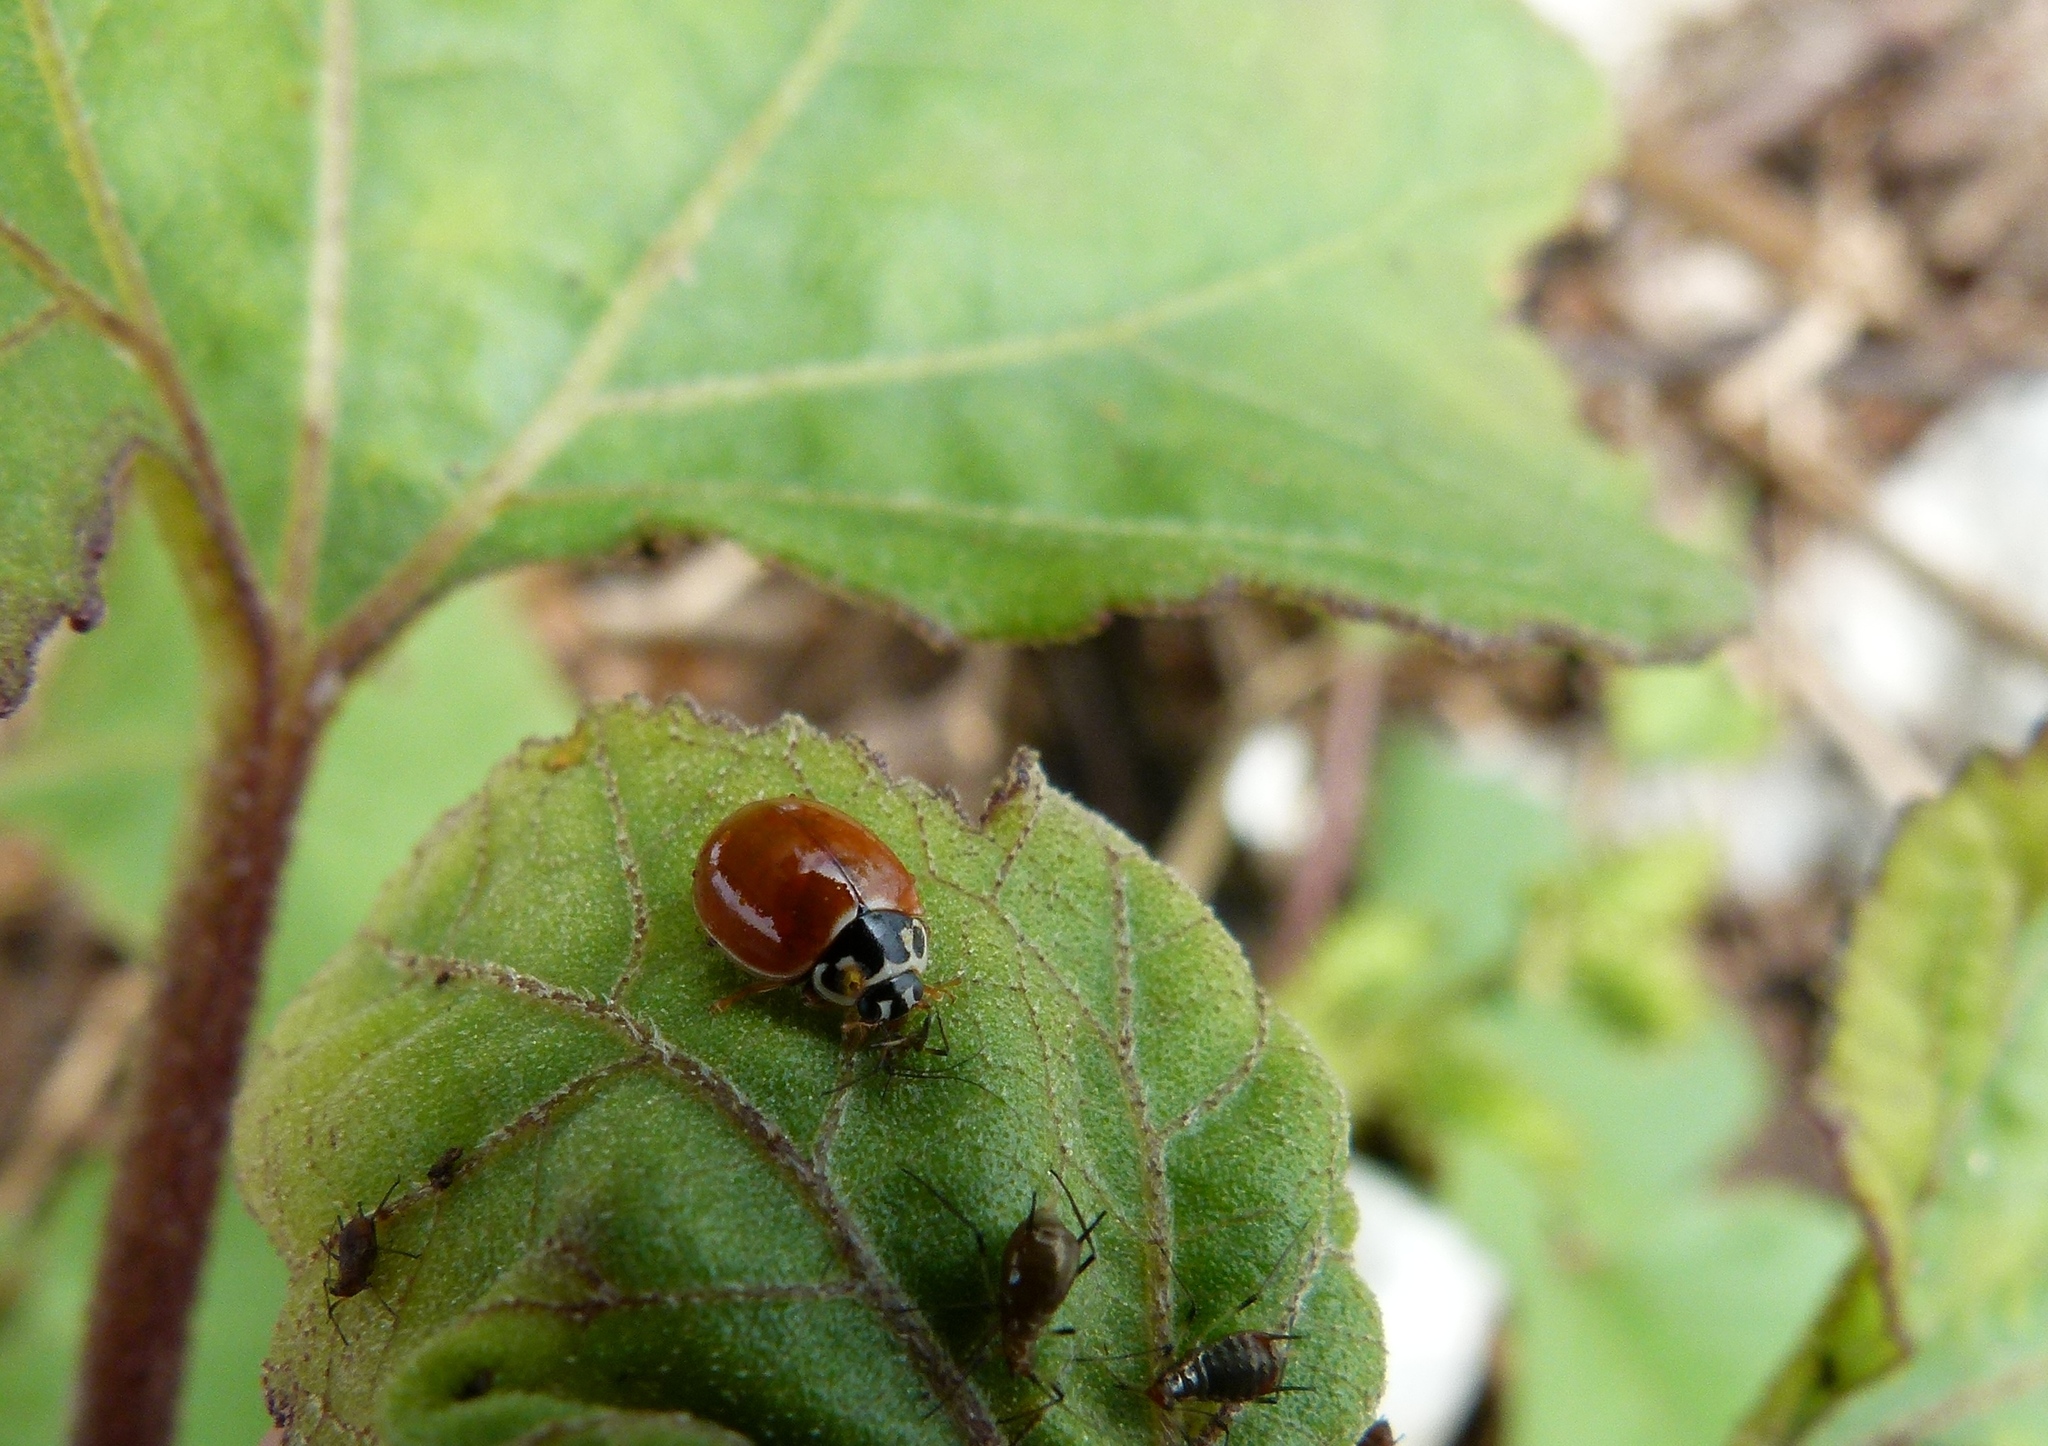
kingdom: Animalia
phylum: Arthropoda
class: Insecta
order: Coleoptera
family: Coccinellidae
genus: Cycloneda
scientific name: Cycloneda munda
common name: Polished lady beetle
